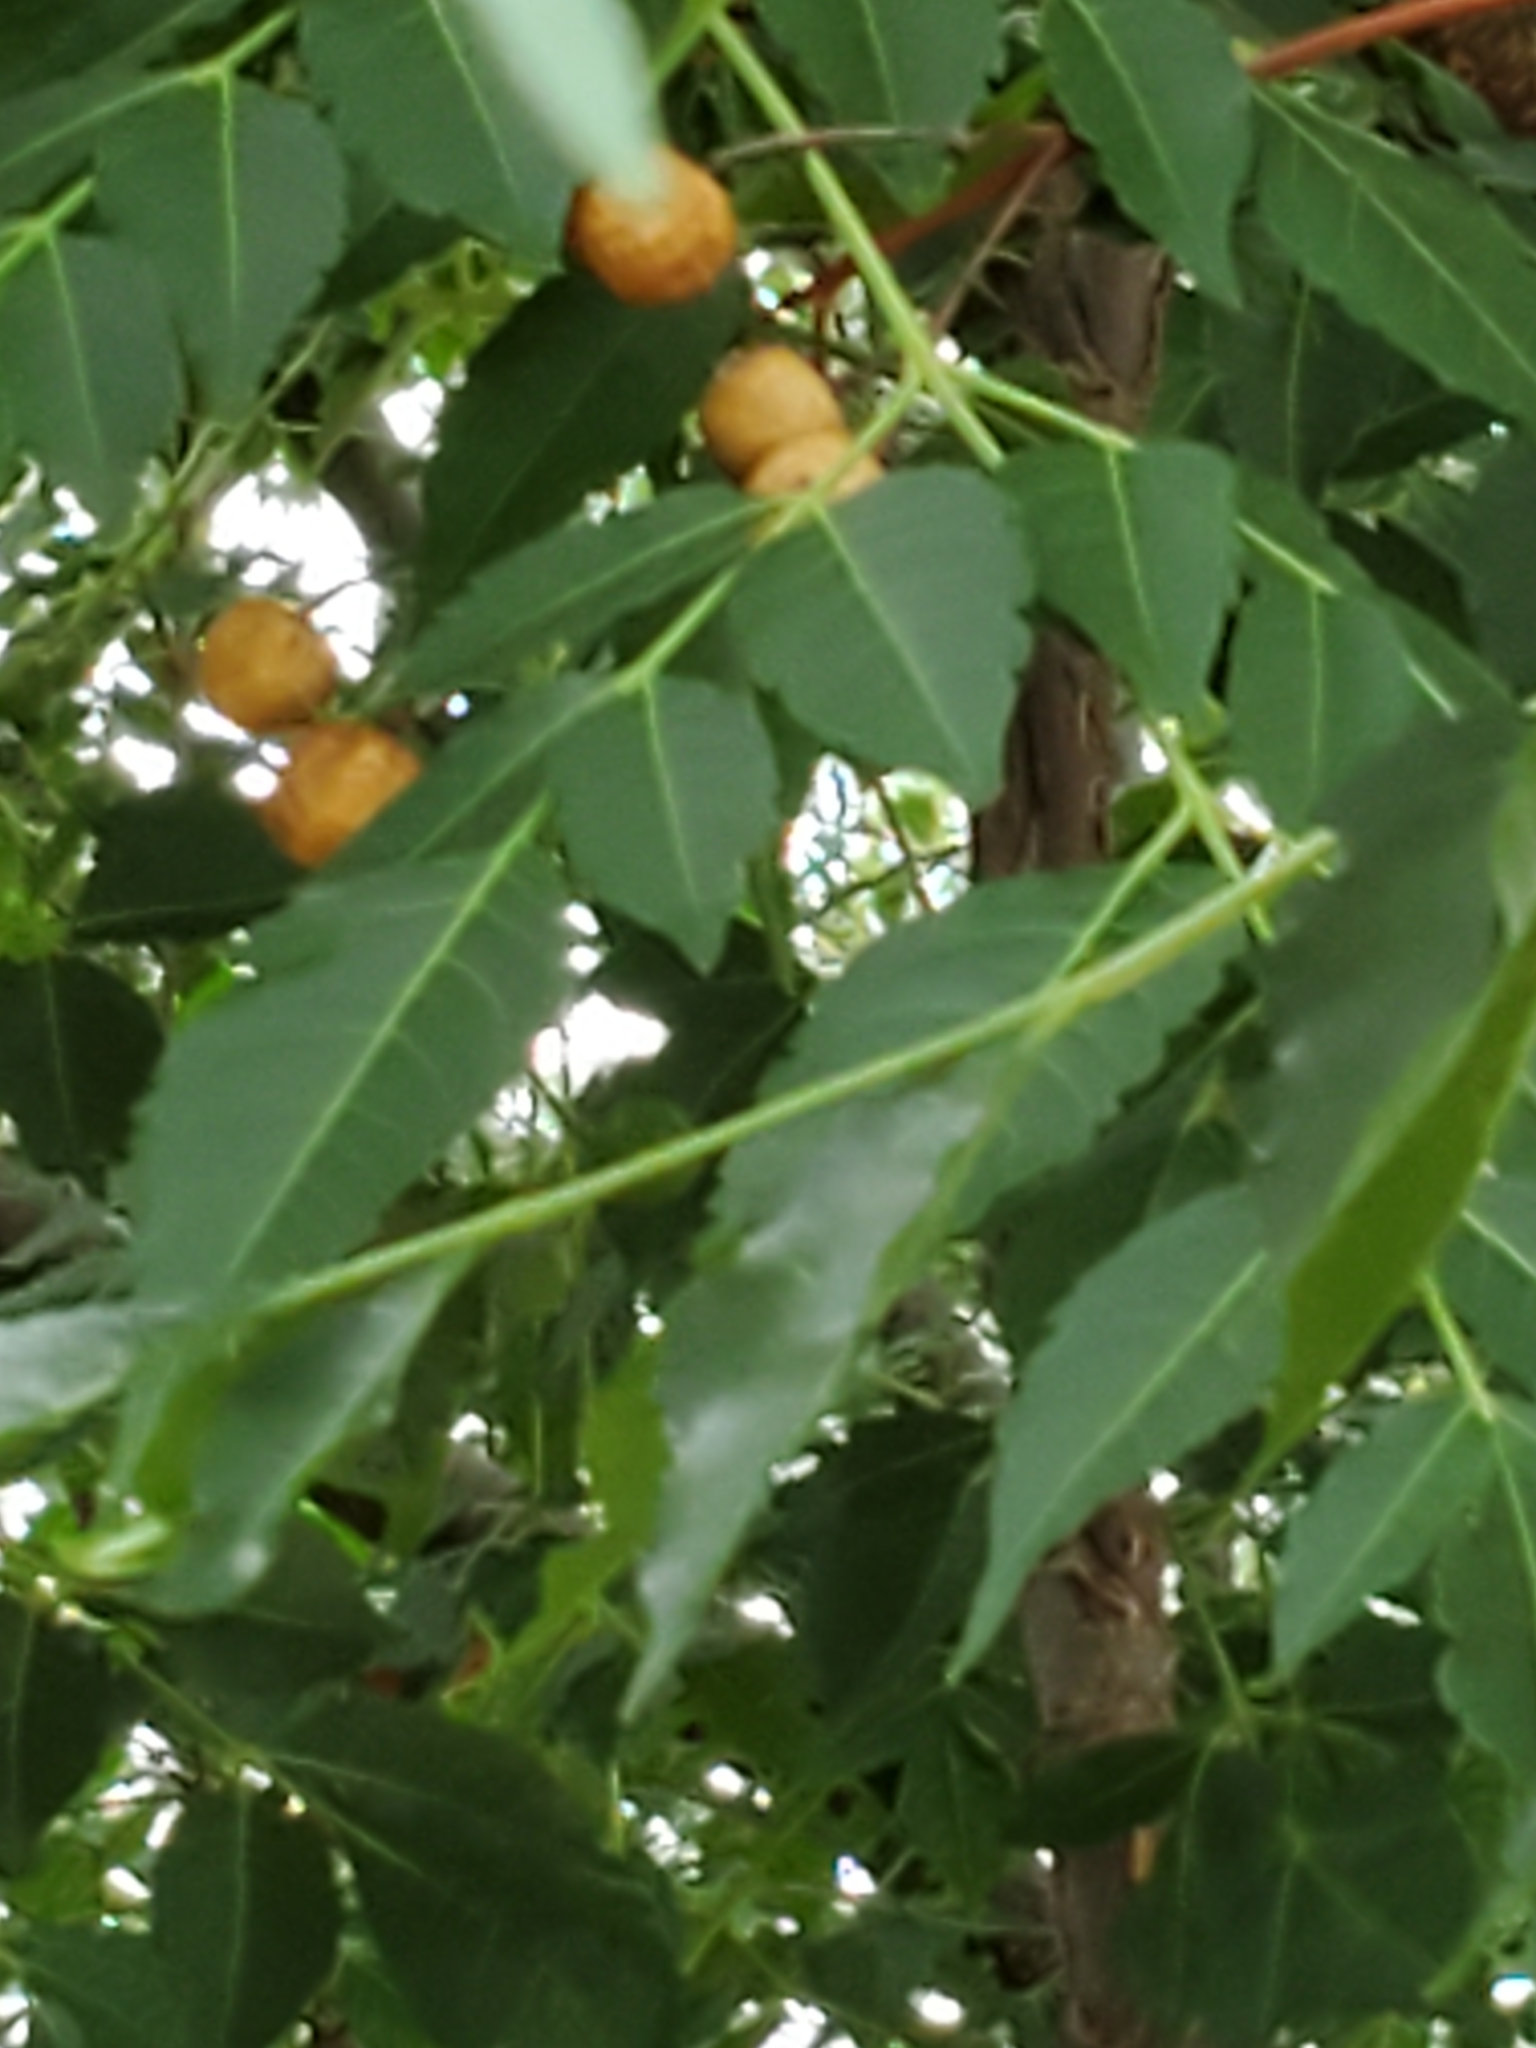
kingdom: Plantae
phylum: Tracheophyta
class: Magnoliopsida
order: Sapindales
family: Meliaceae
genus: Melia
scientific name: Melia azedarach
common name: Chinaberrytree
